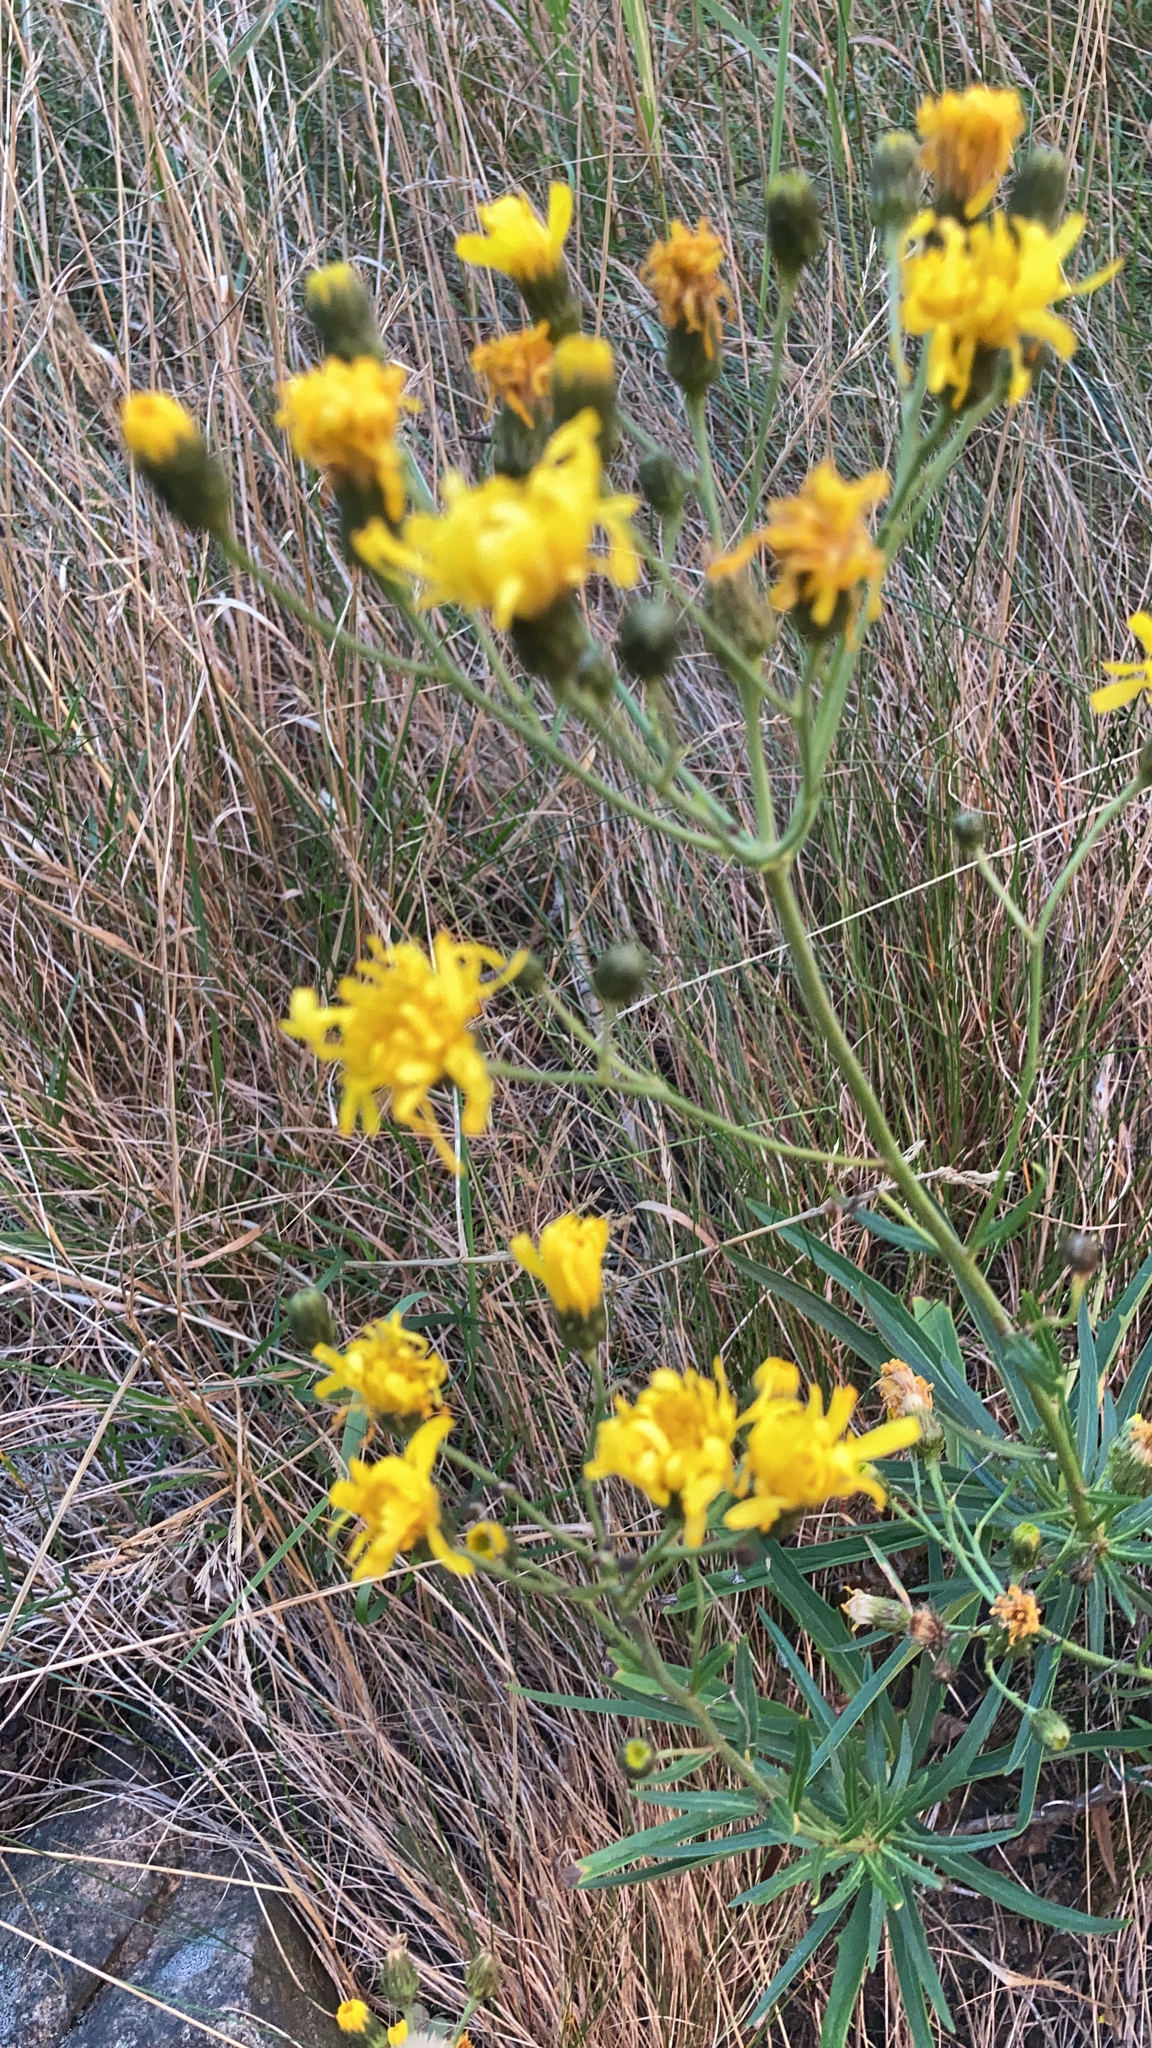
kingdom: Plantae
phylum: Tracheophyta
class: Magnoliopsida
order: Asterales
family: Asteraceae
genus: Hieracium
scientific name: Hieracium umbellatum
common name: Northern hawkweed
